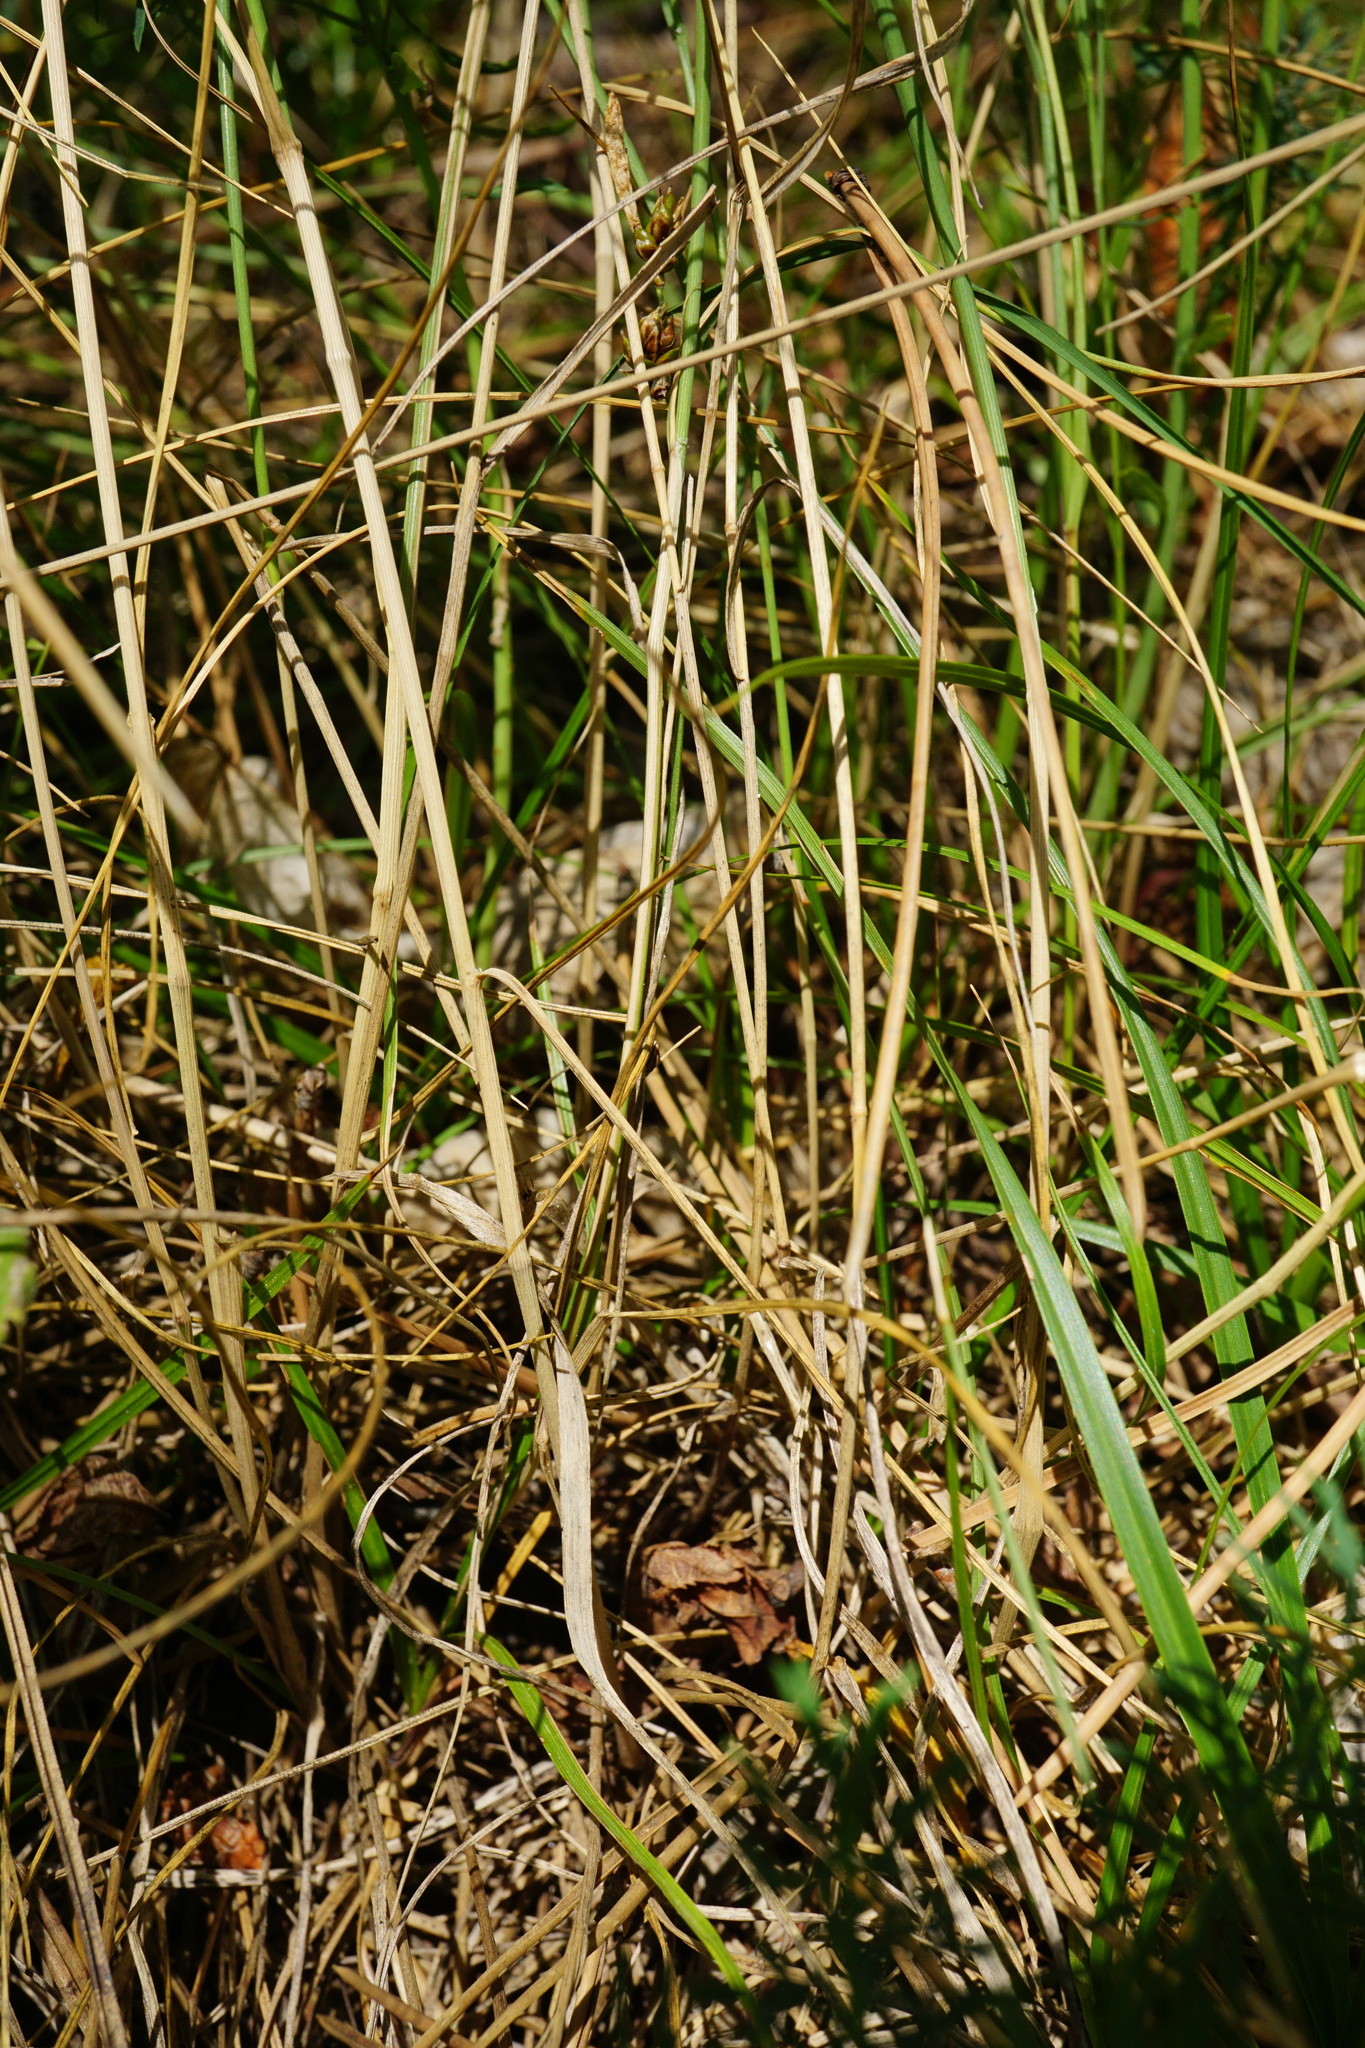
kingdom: Plantae
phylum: Tracheophyta
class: Liliopsida
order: Poales
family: Poaceae
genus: Melica
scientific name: Melica ciliata
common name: Hairy melicgrass
